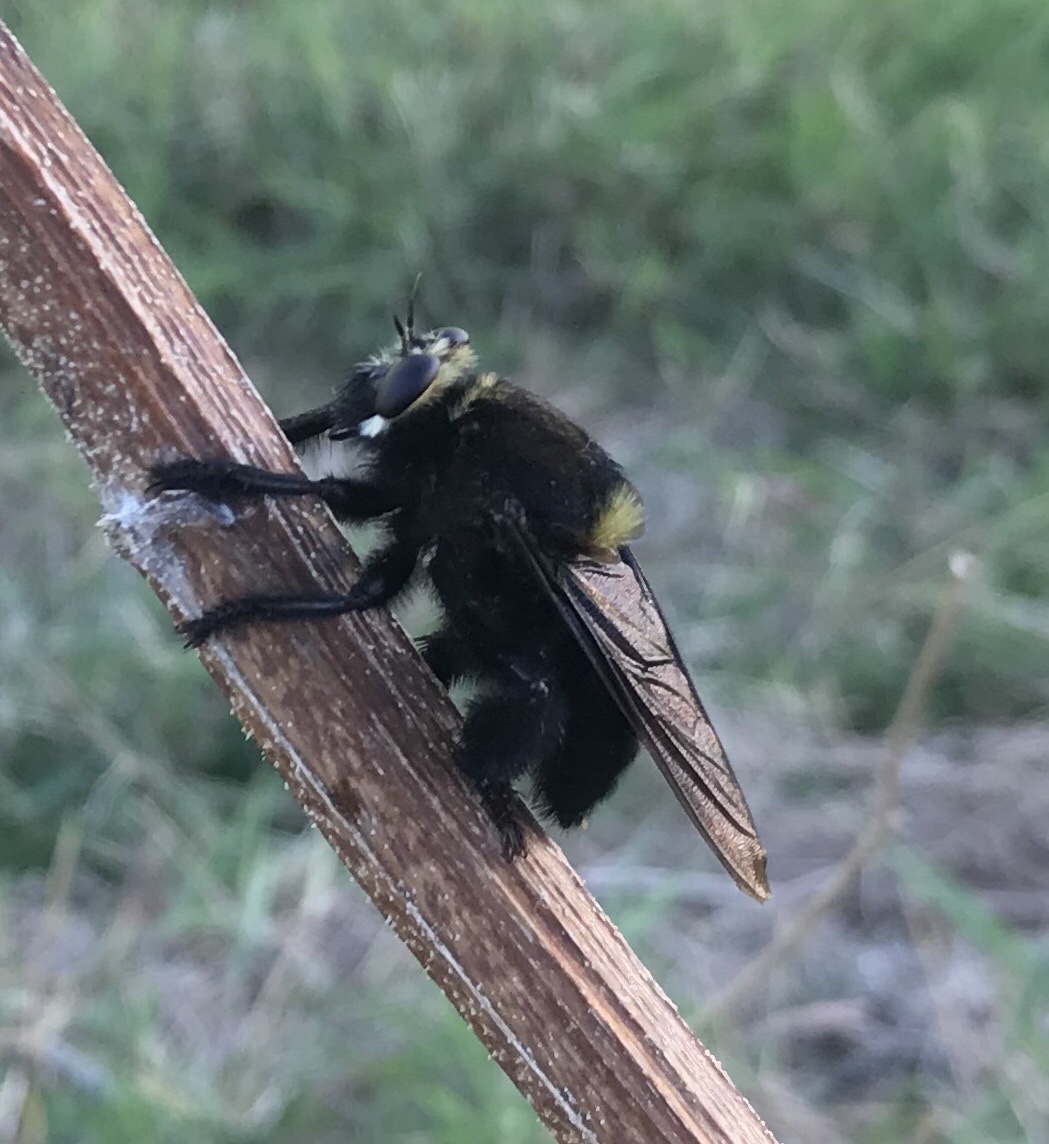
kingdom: Animalia
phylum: Arthropoda
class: Insecta
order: Diptera
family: Asilidae
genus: Mallophora
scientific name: Mallophora leschenaultii
